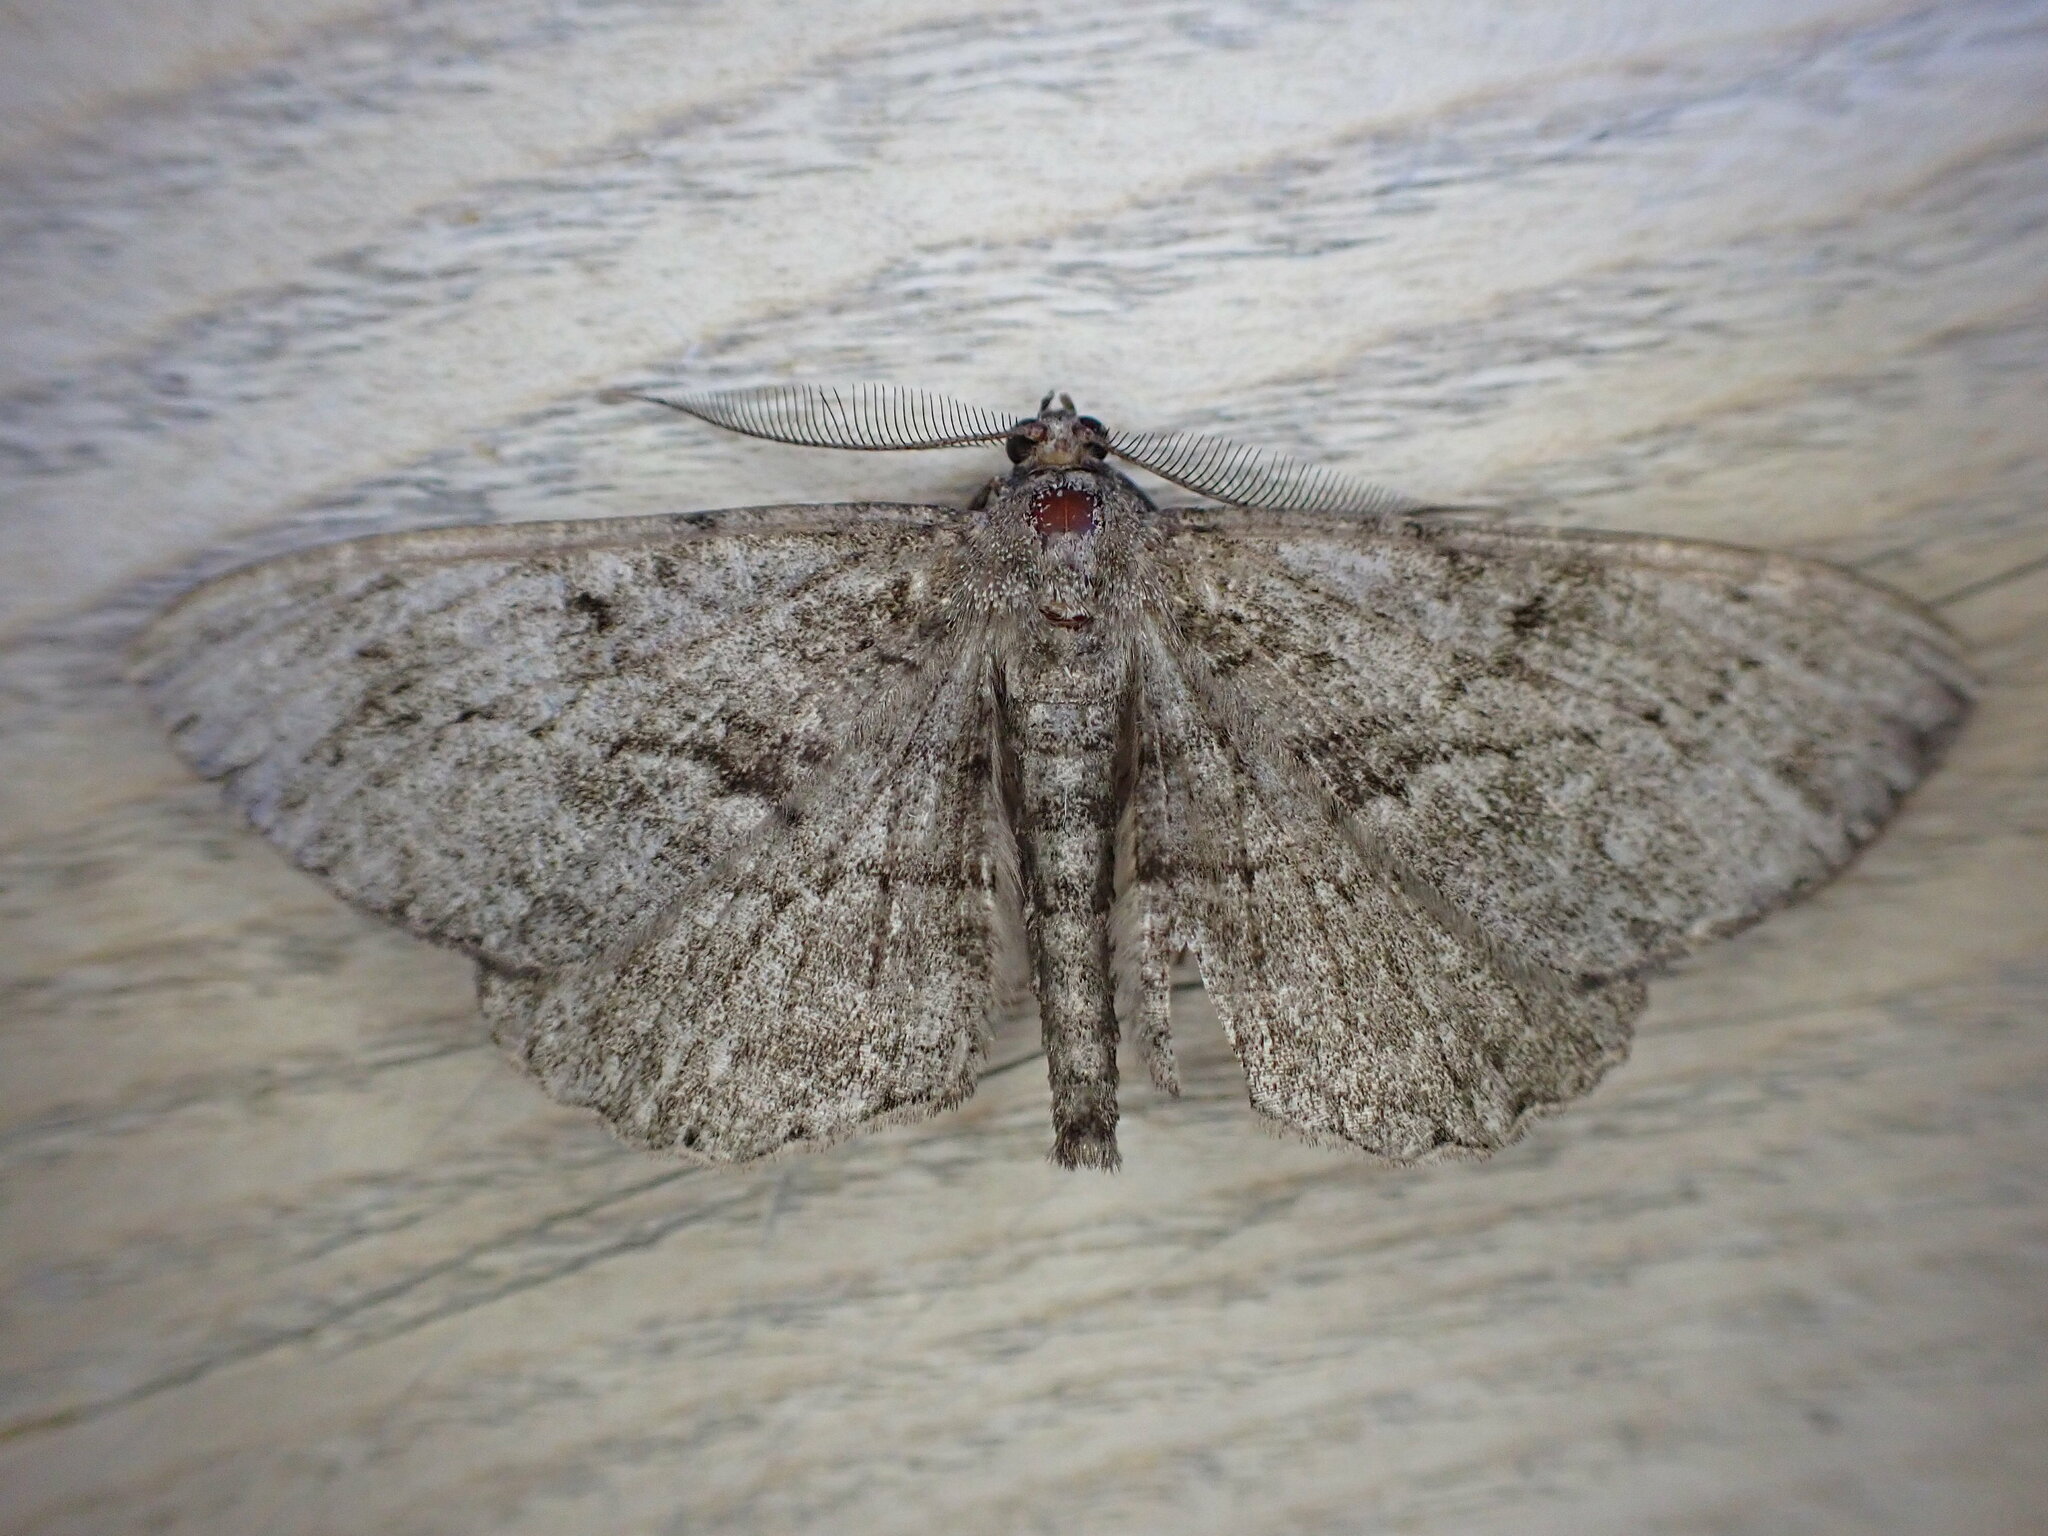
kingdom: Animalia
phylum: Arthropoda
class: Insecta
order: Lepidoptera
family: Geometridae
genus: Peribatodes
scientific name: Peribatodes rhomboidaria
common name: Willow beauty
